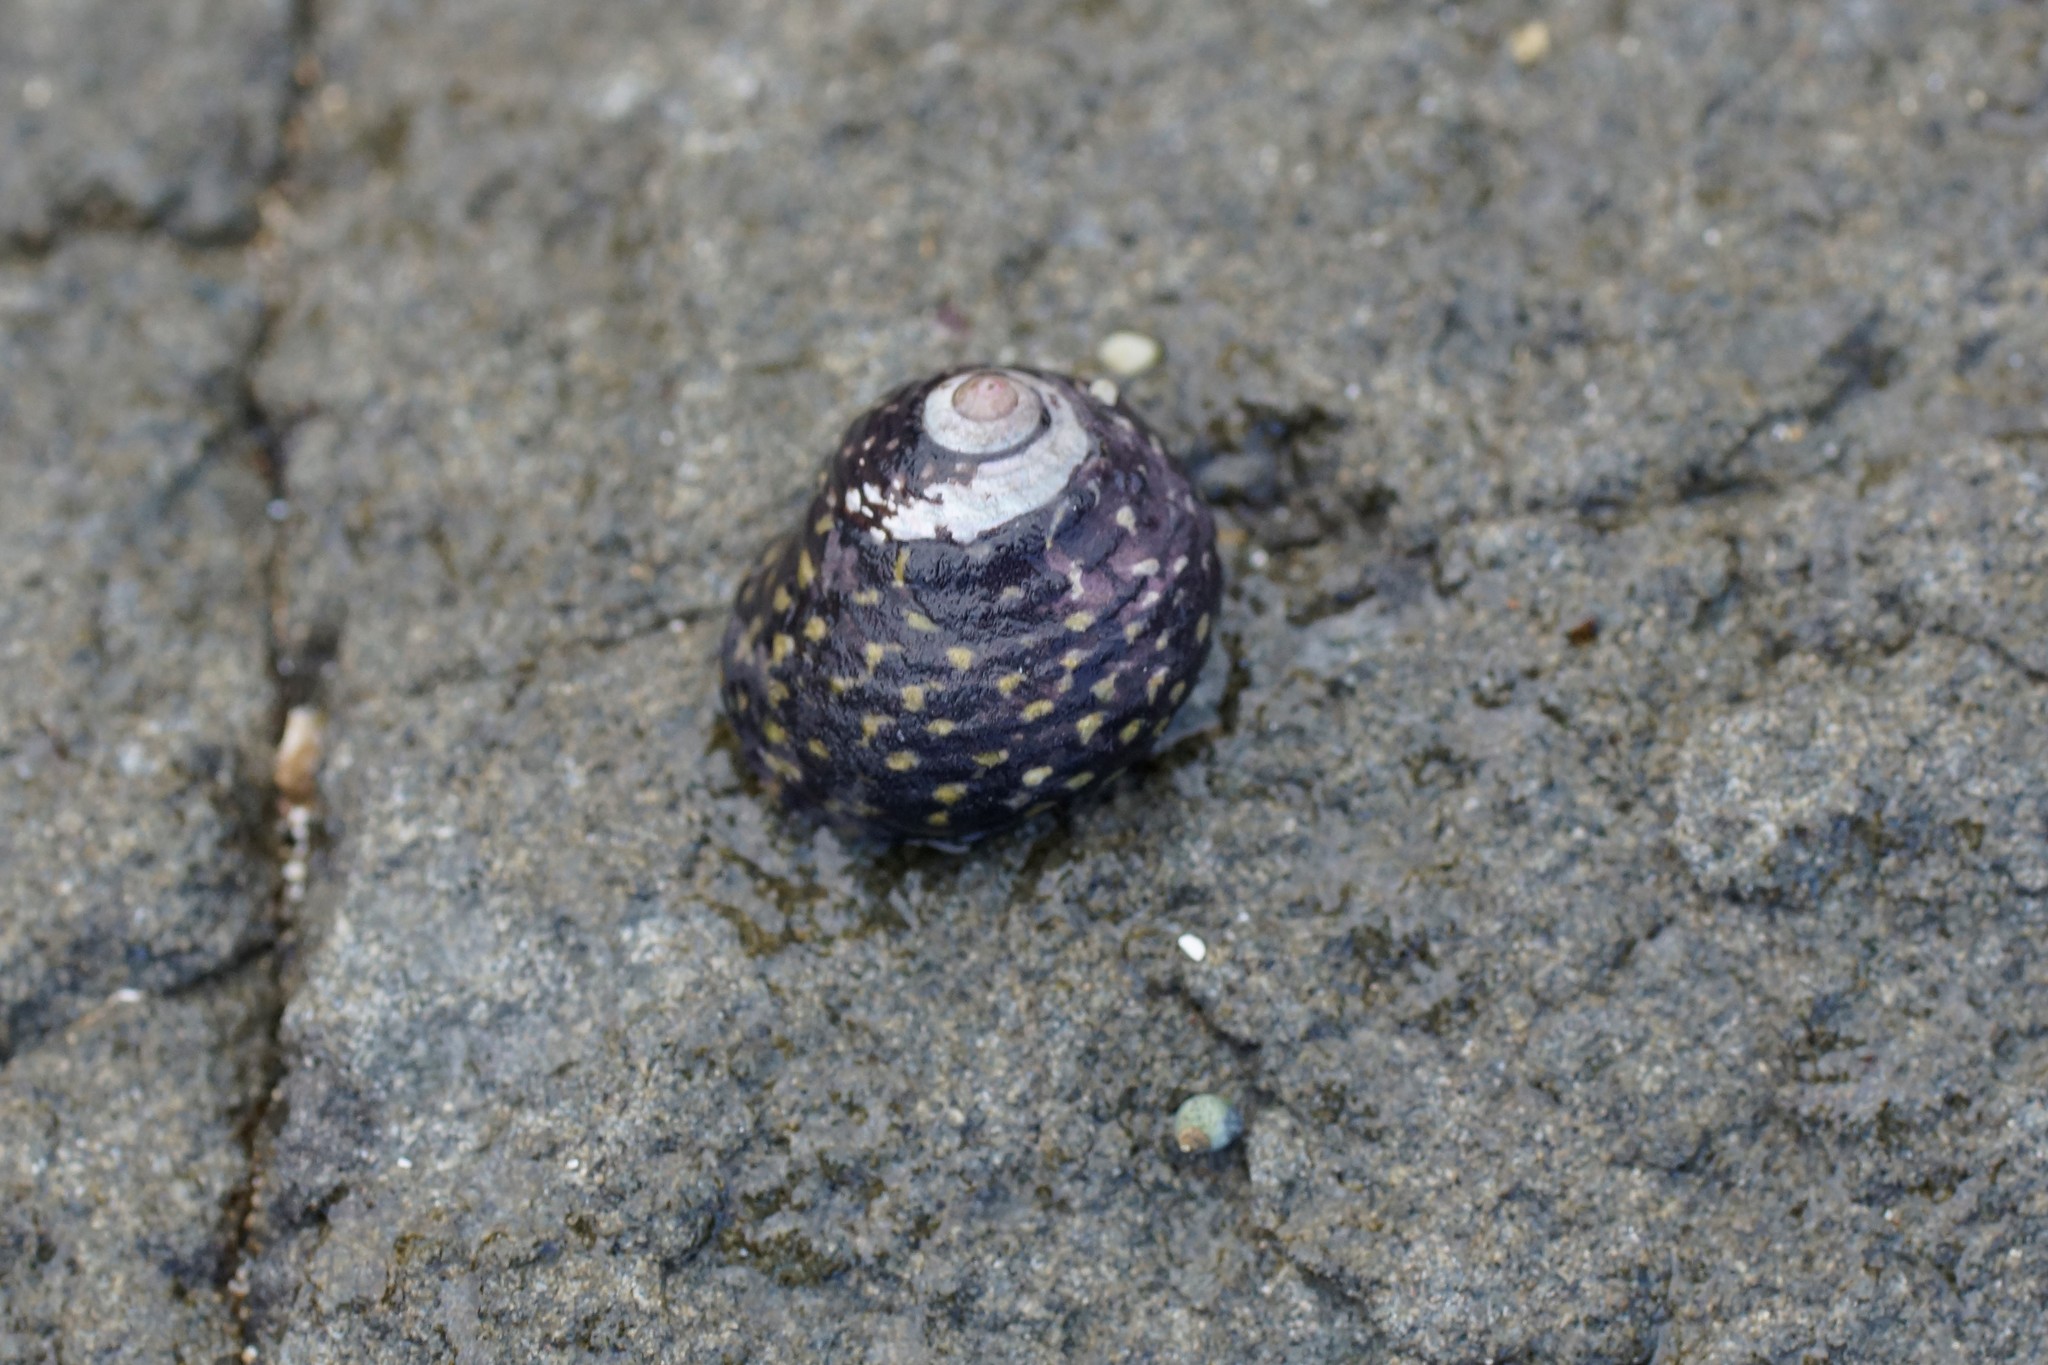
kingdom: Animalia
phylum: Mollusca
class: Gastropoda
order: Trochida
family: Trochidae
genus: Diloma
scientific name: Diloma concameratum
